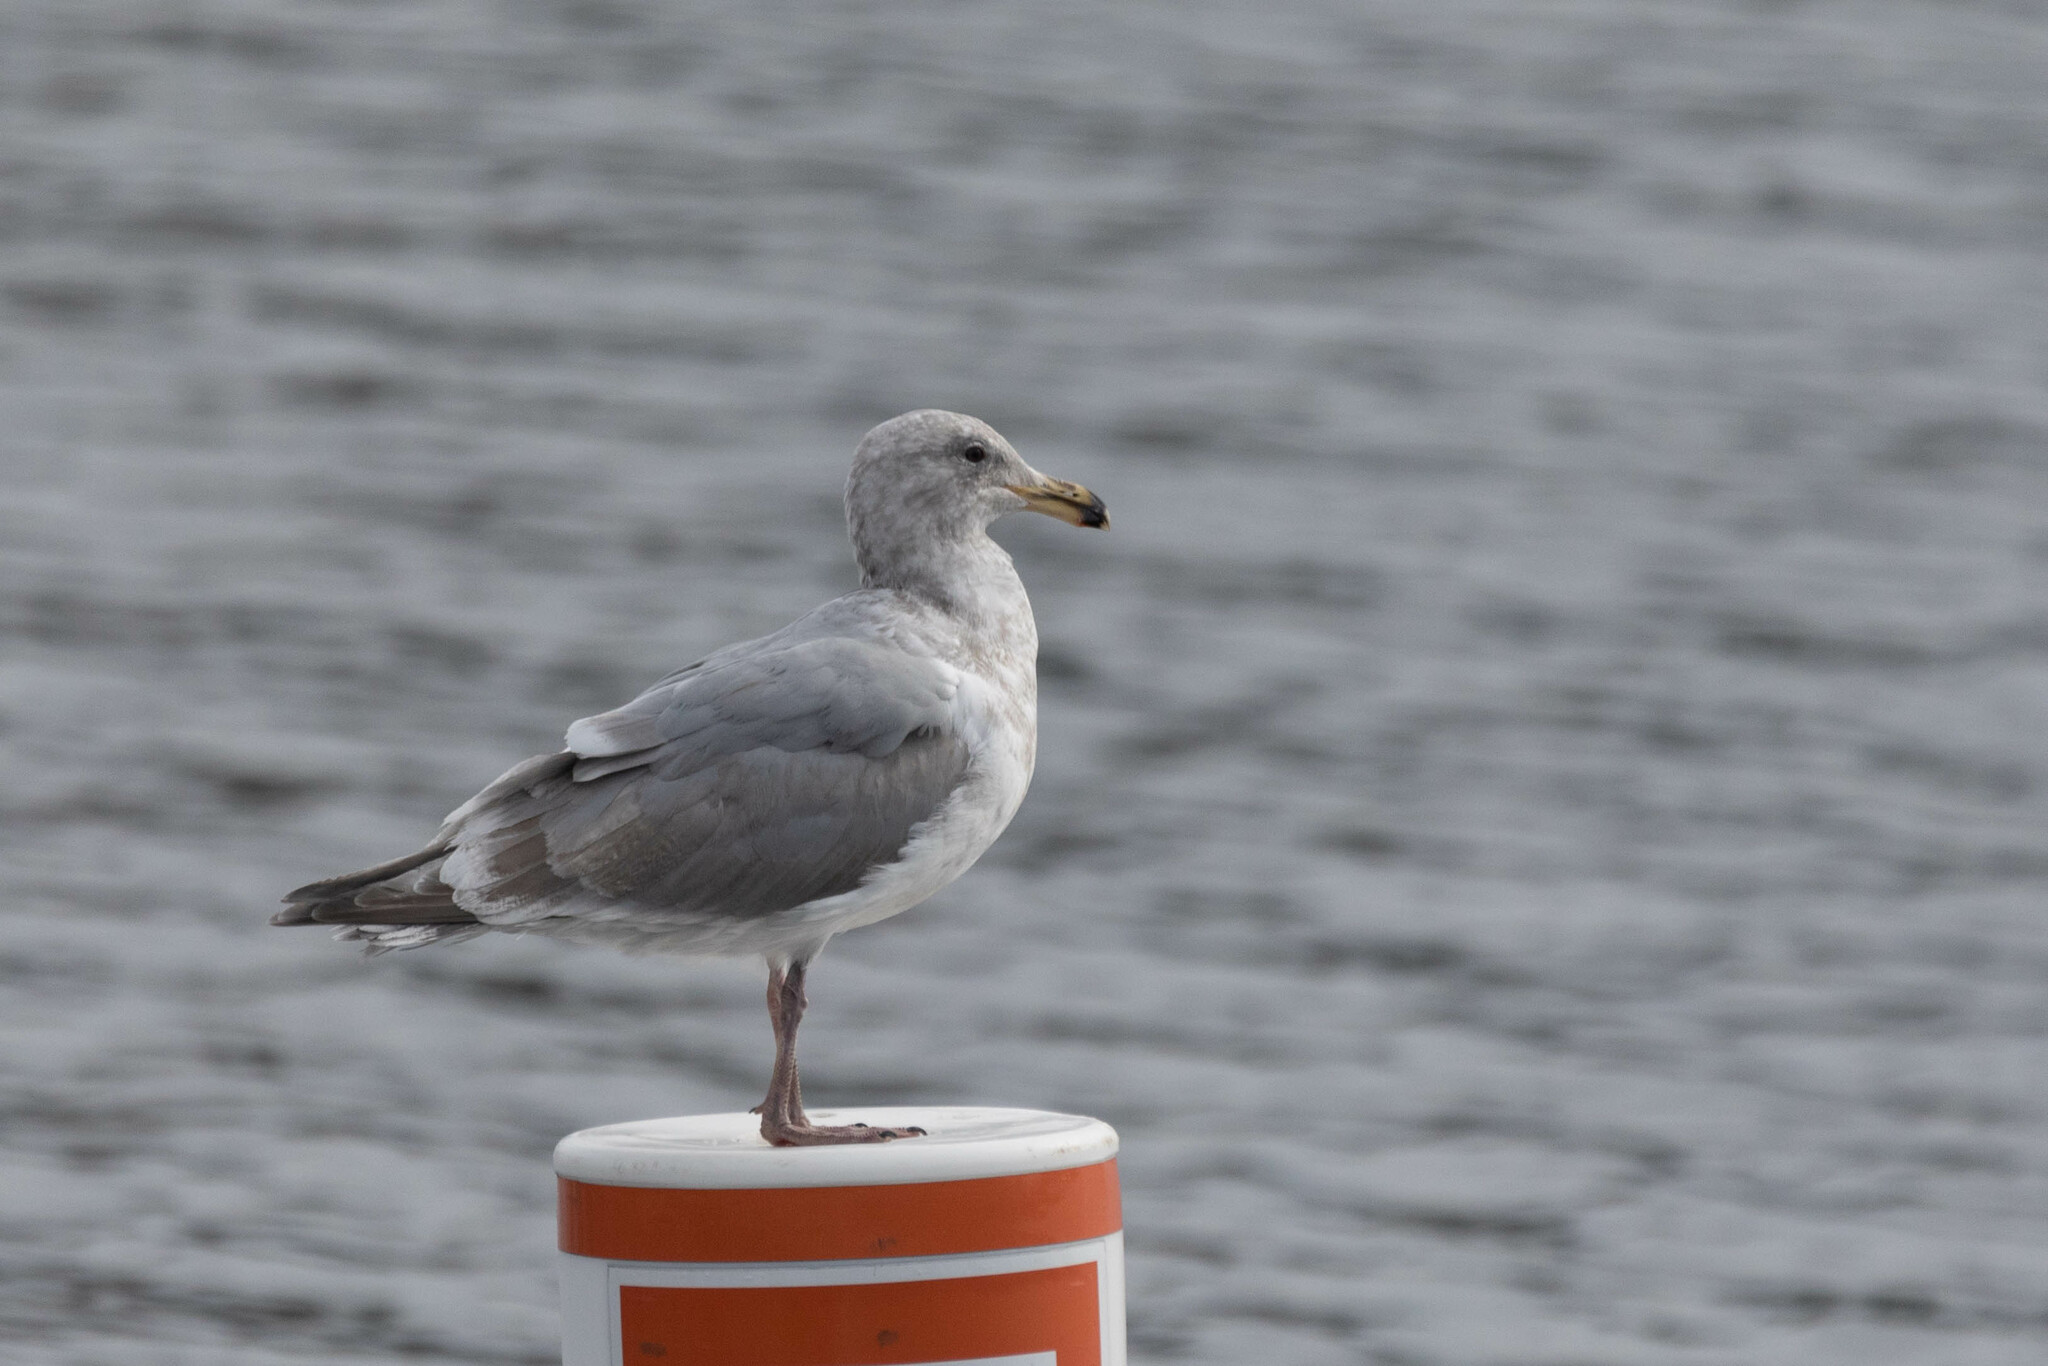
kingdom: Animalia
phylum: Chordata
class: Aves
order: Charadriiformes
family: Laridae
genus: Larus
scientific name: Larus
